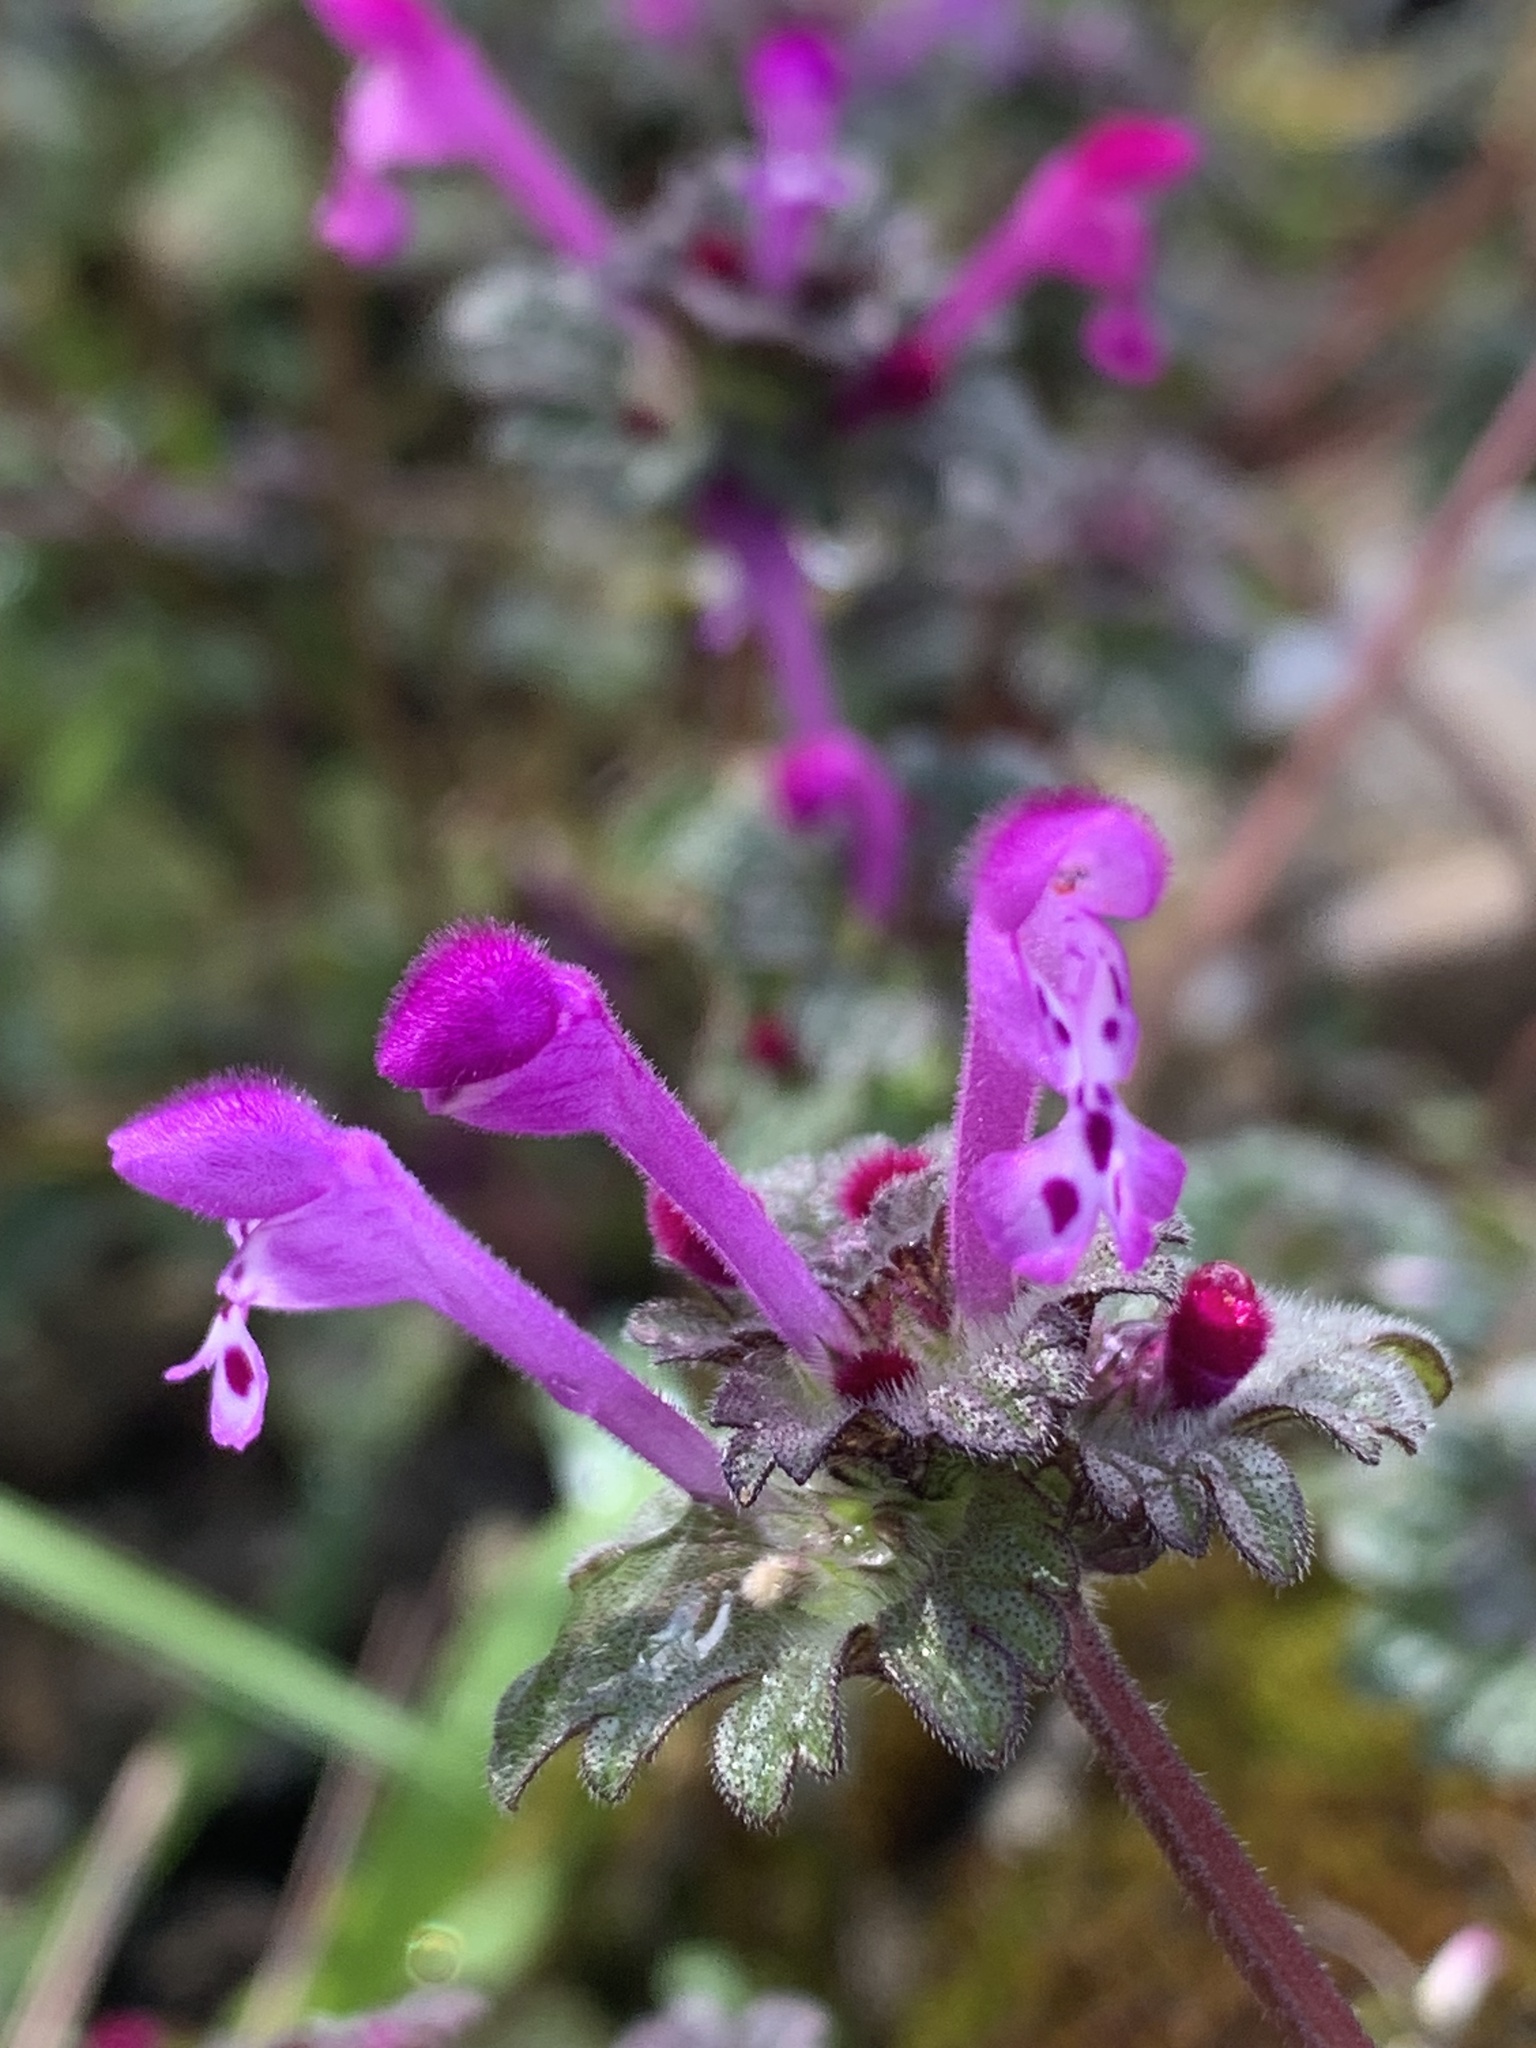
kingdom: Plantae
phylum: Tracheophyta
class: Magnoliopsida
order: Lamiales
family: Lamiaceae
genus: Lamium
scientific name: Lamium amplexicaule
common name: Henbit dead-nettle
